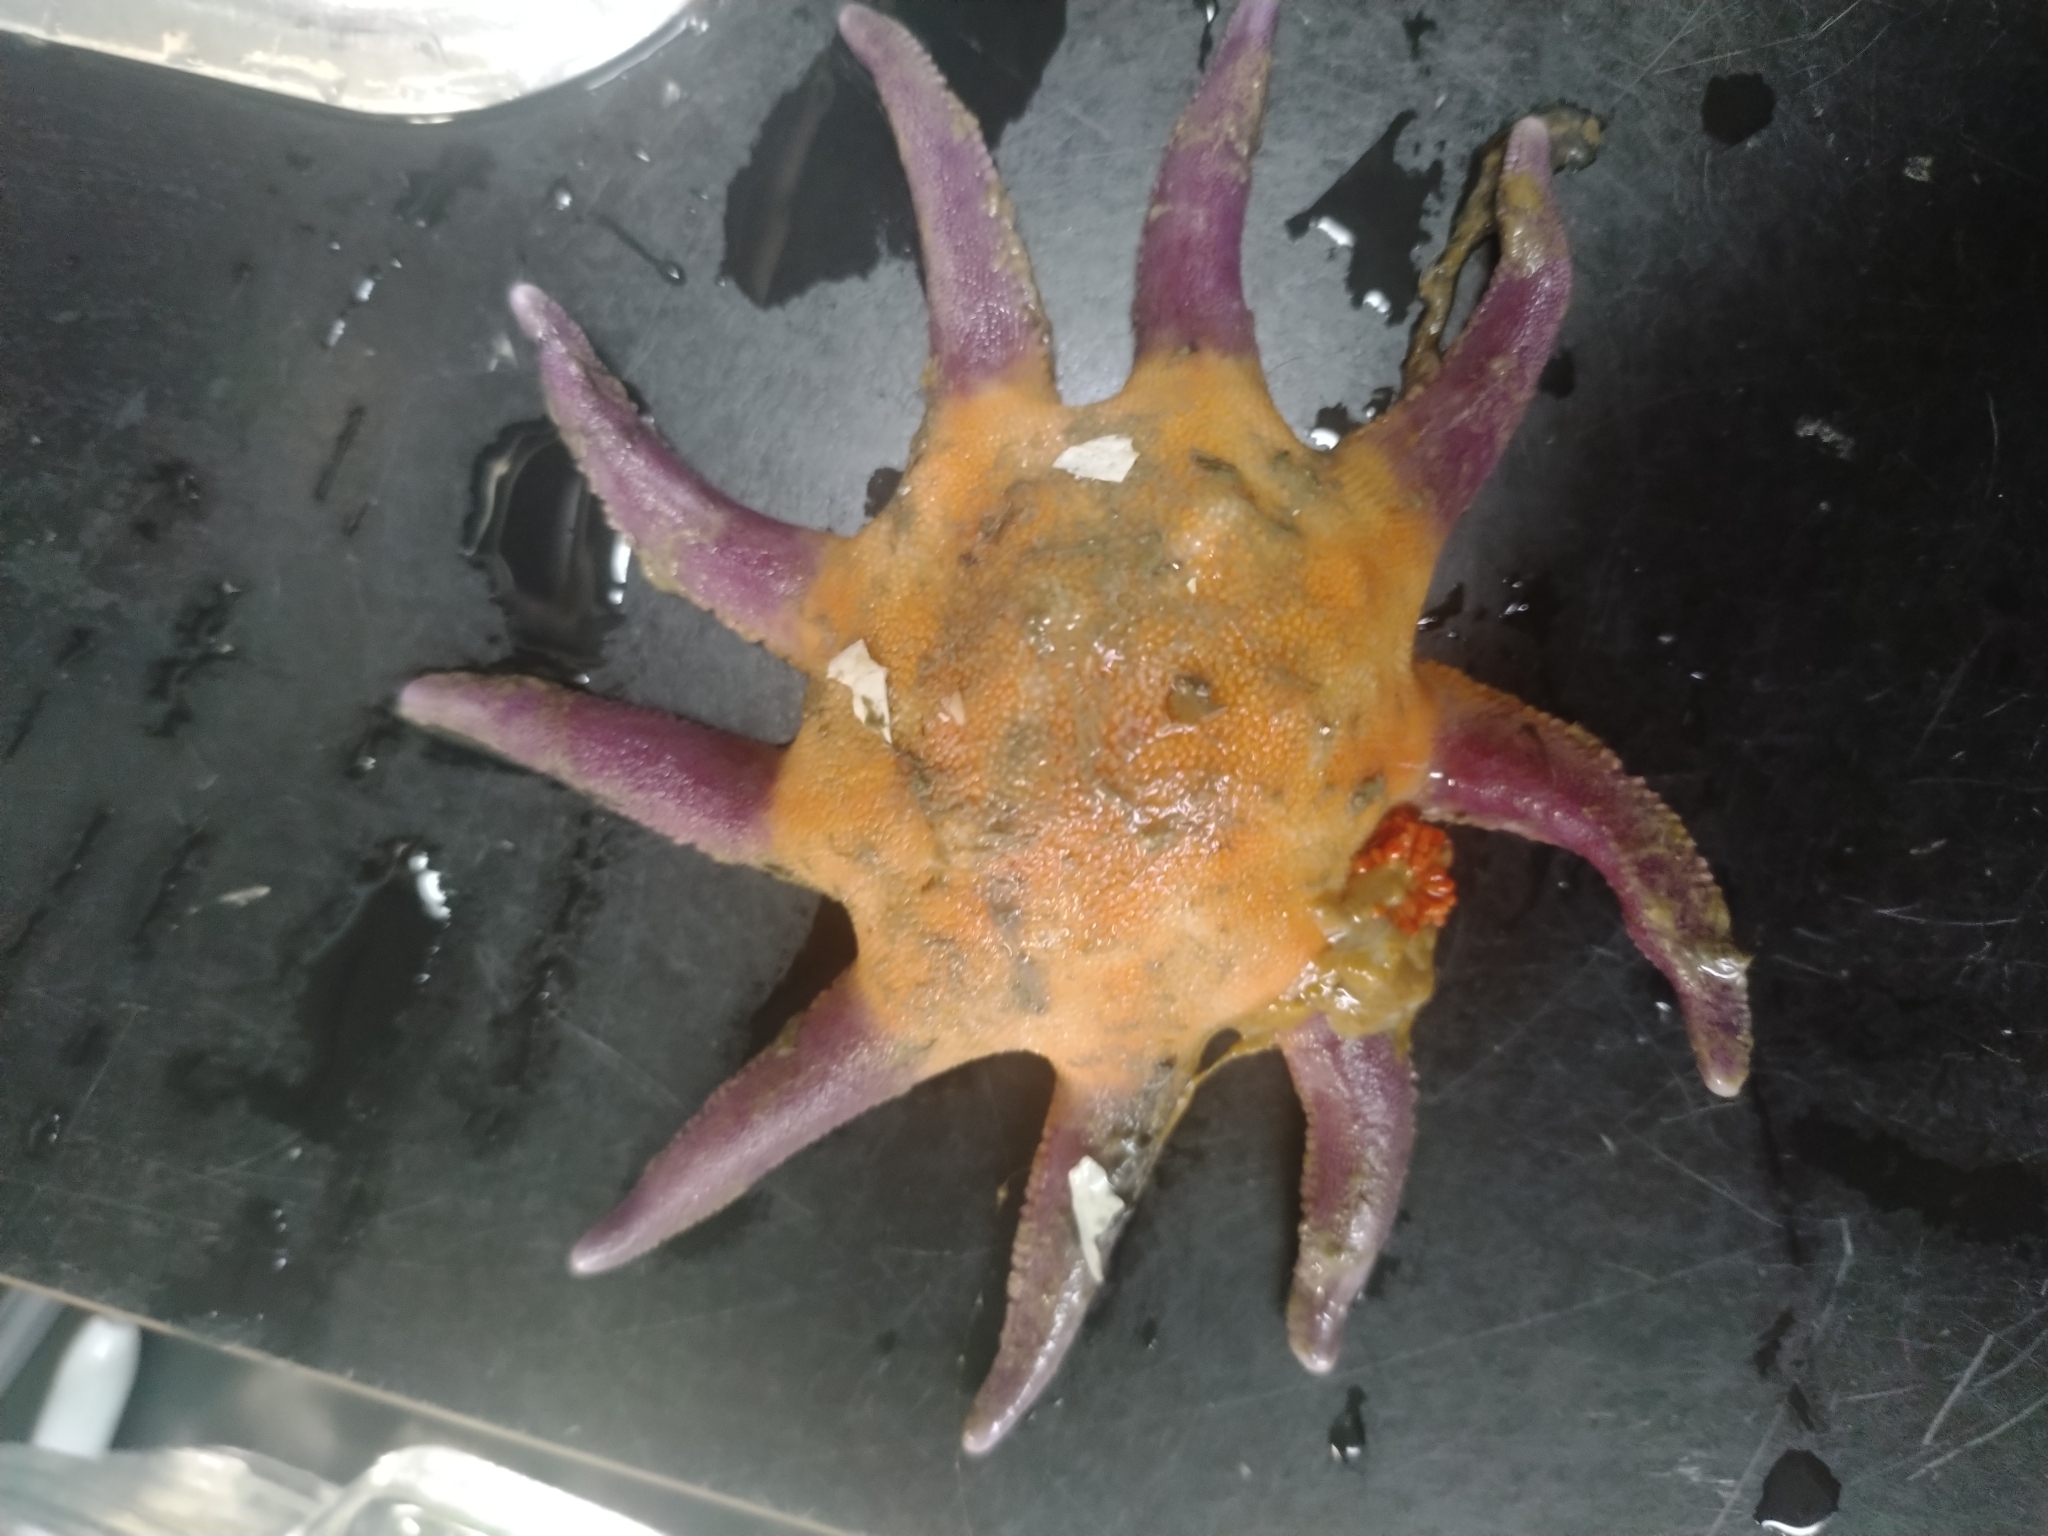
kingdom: Animalia
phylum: Echinodermata
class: Asteroidea
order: Valvatida
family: Solasteridae
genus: Solaster
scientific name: Solaster endeca
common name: Purple sun star
